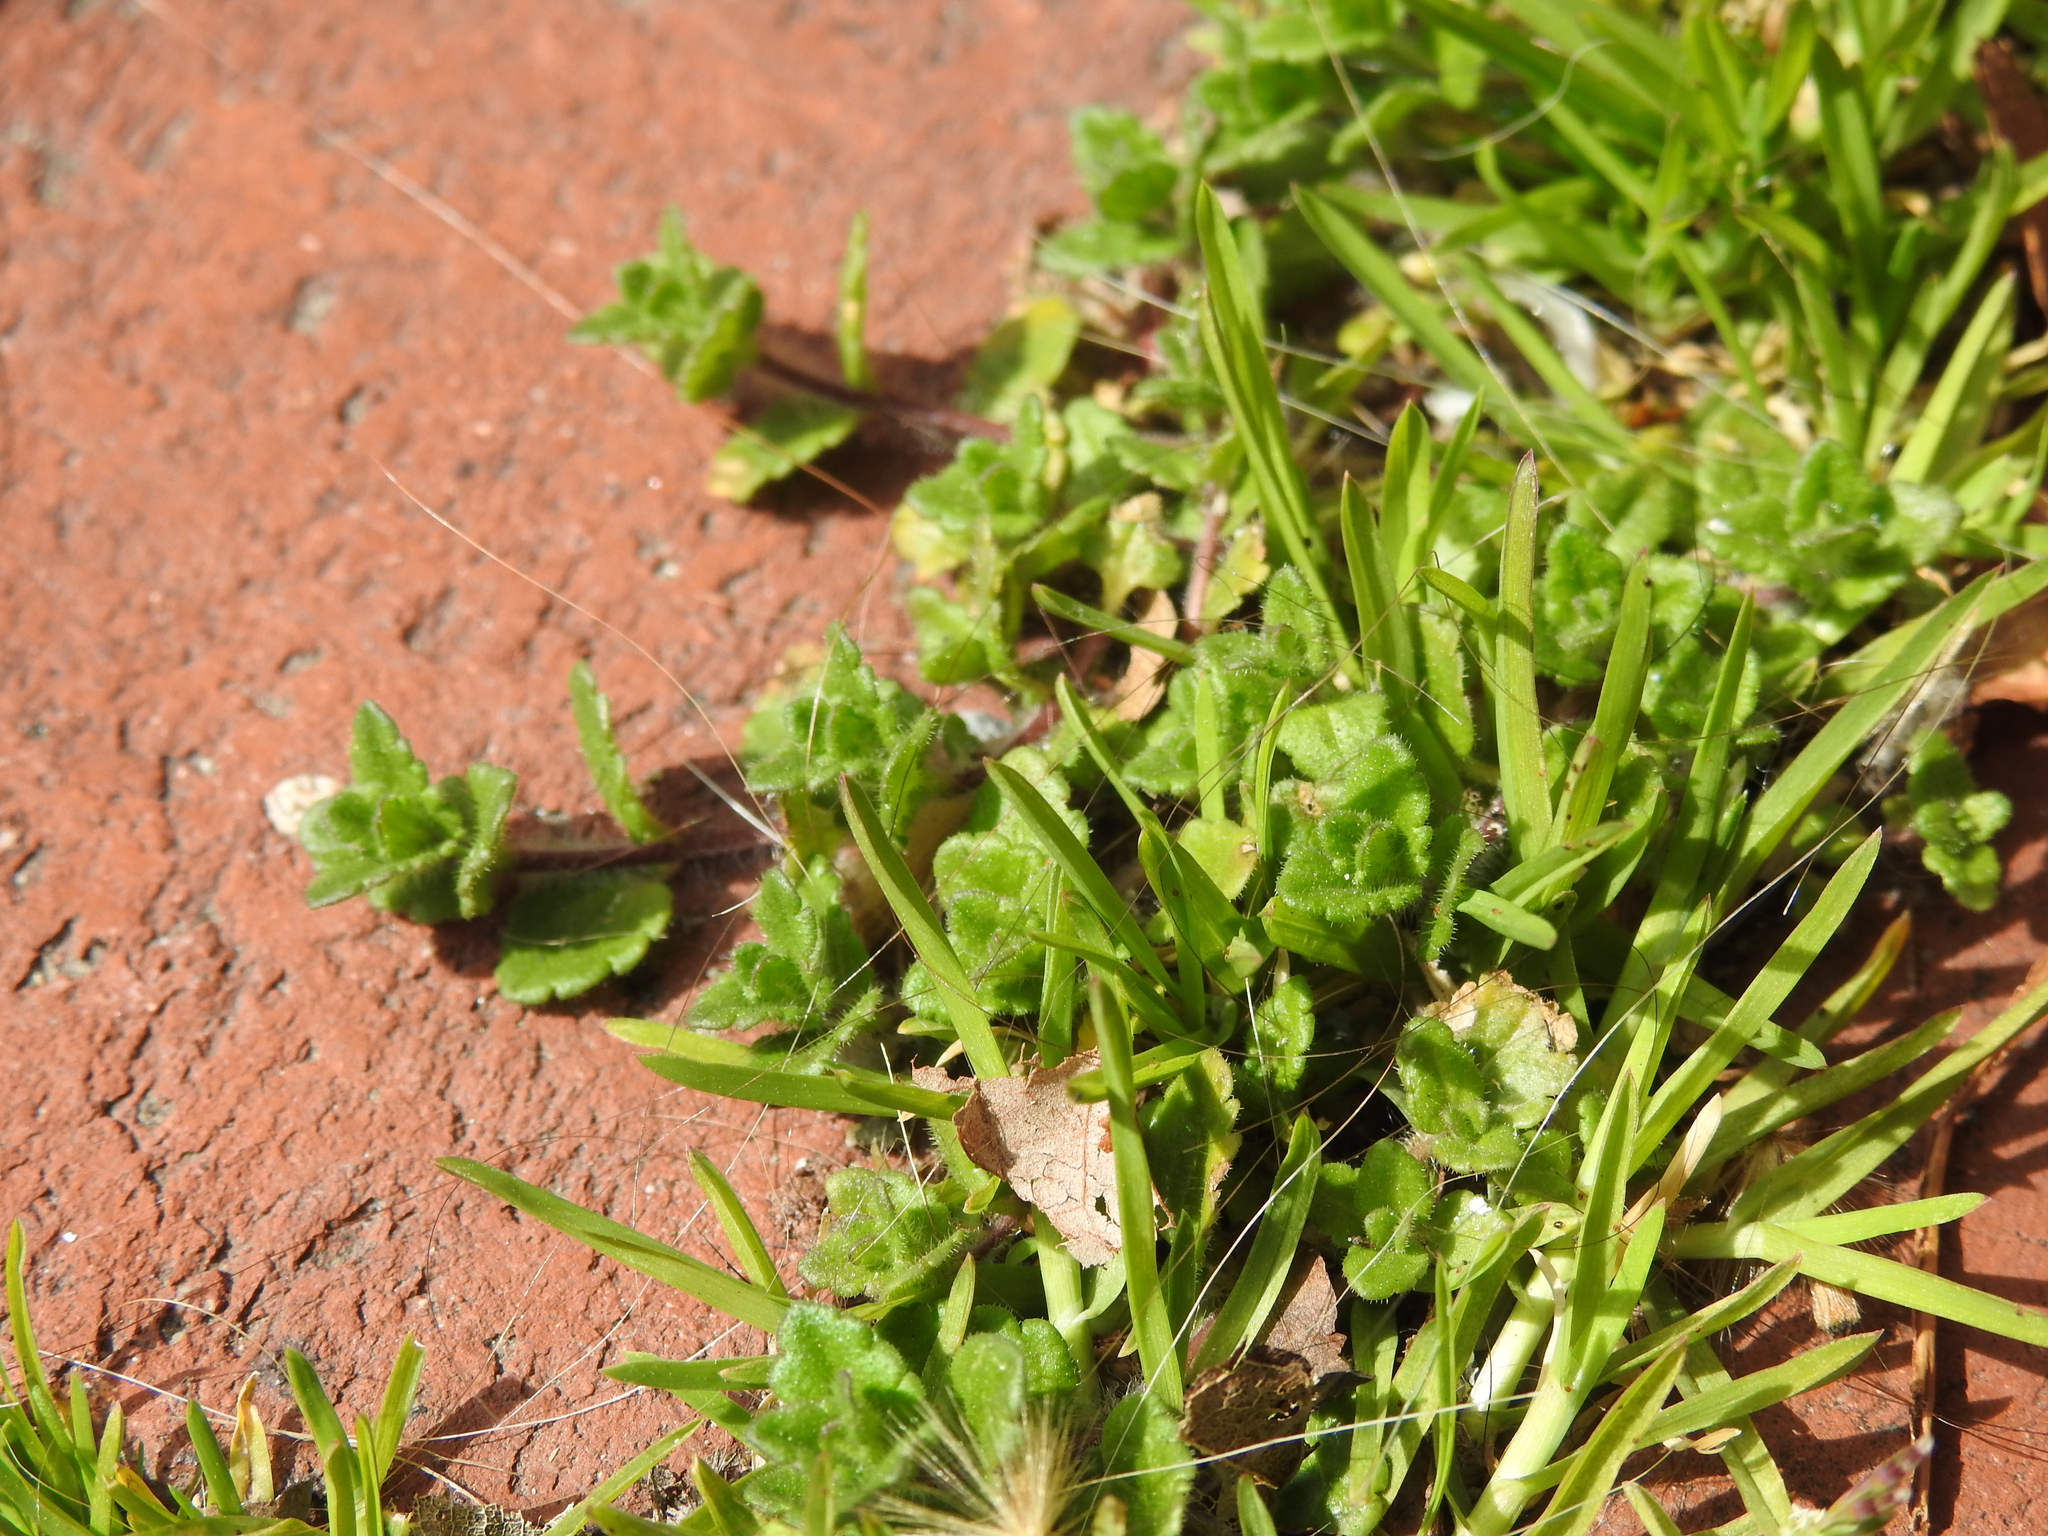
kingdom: Plantae
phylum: Tracheophyta
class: Magnoliopsida
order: Lamiales
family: Plantaginaceae
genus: Veronica
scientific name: Veronica arvensis
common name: Corn speedwell
